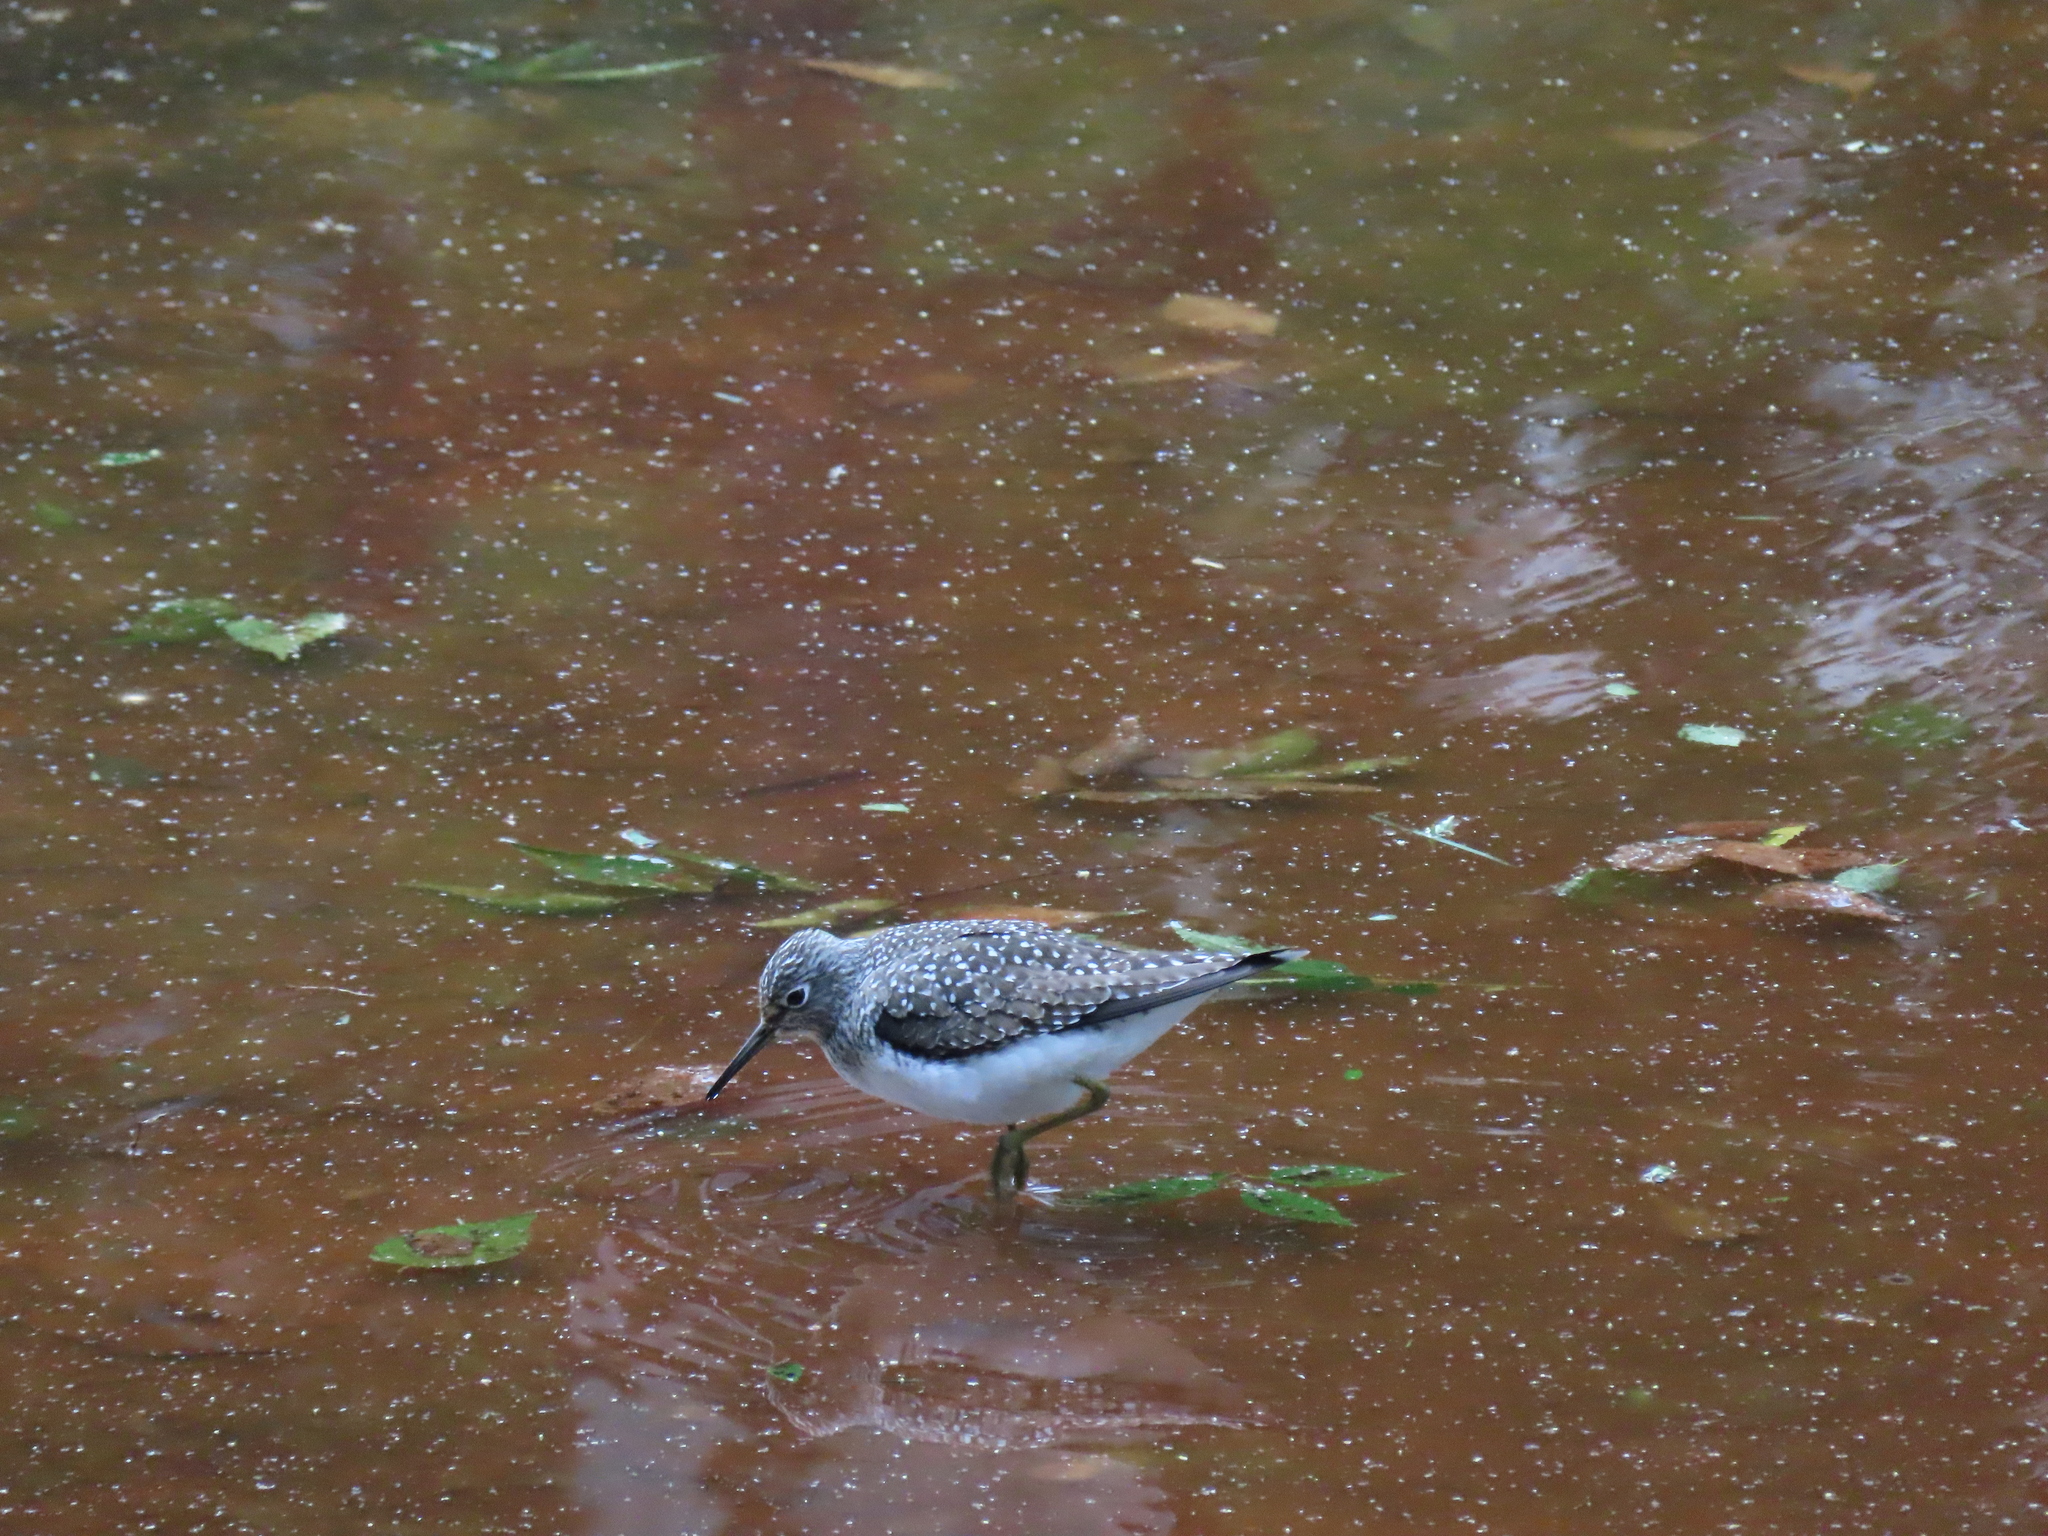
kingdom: Animalia
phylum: Chordata
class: Aves
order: Charadriiformes
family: Scolopacidae
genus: Tringa
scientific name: Tringa solitaria
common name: Solitary sandpiper
